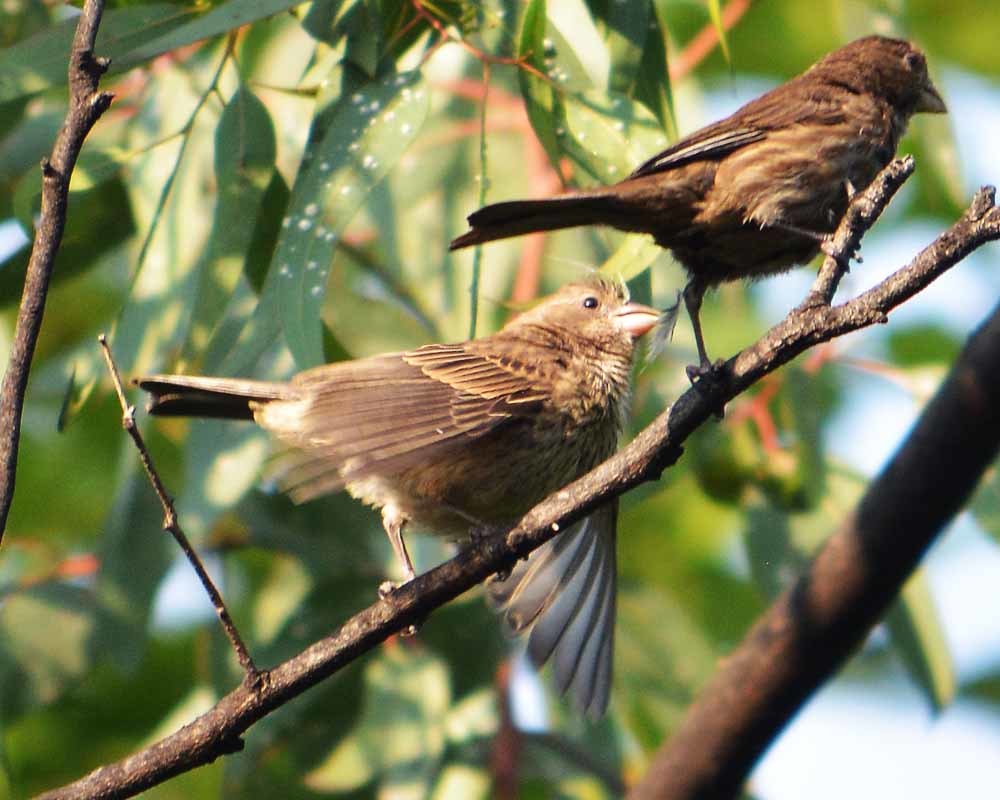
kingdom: Animalia
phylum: Chordata
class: Aves
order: Passeriformes
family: Fringillidae
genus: Haemorhous
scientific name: Haemorhous mexicanus
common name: House finch
